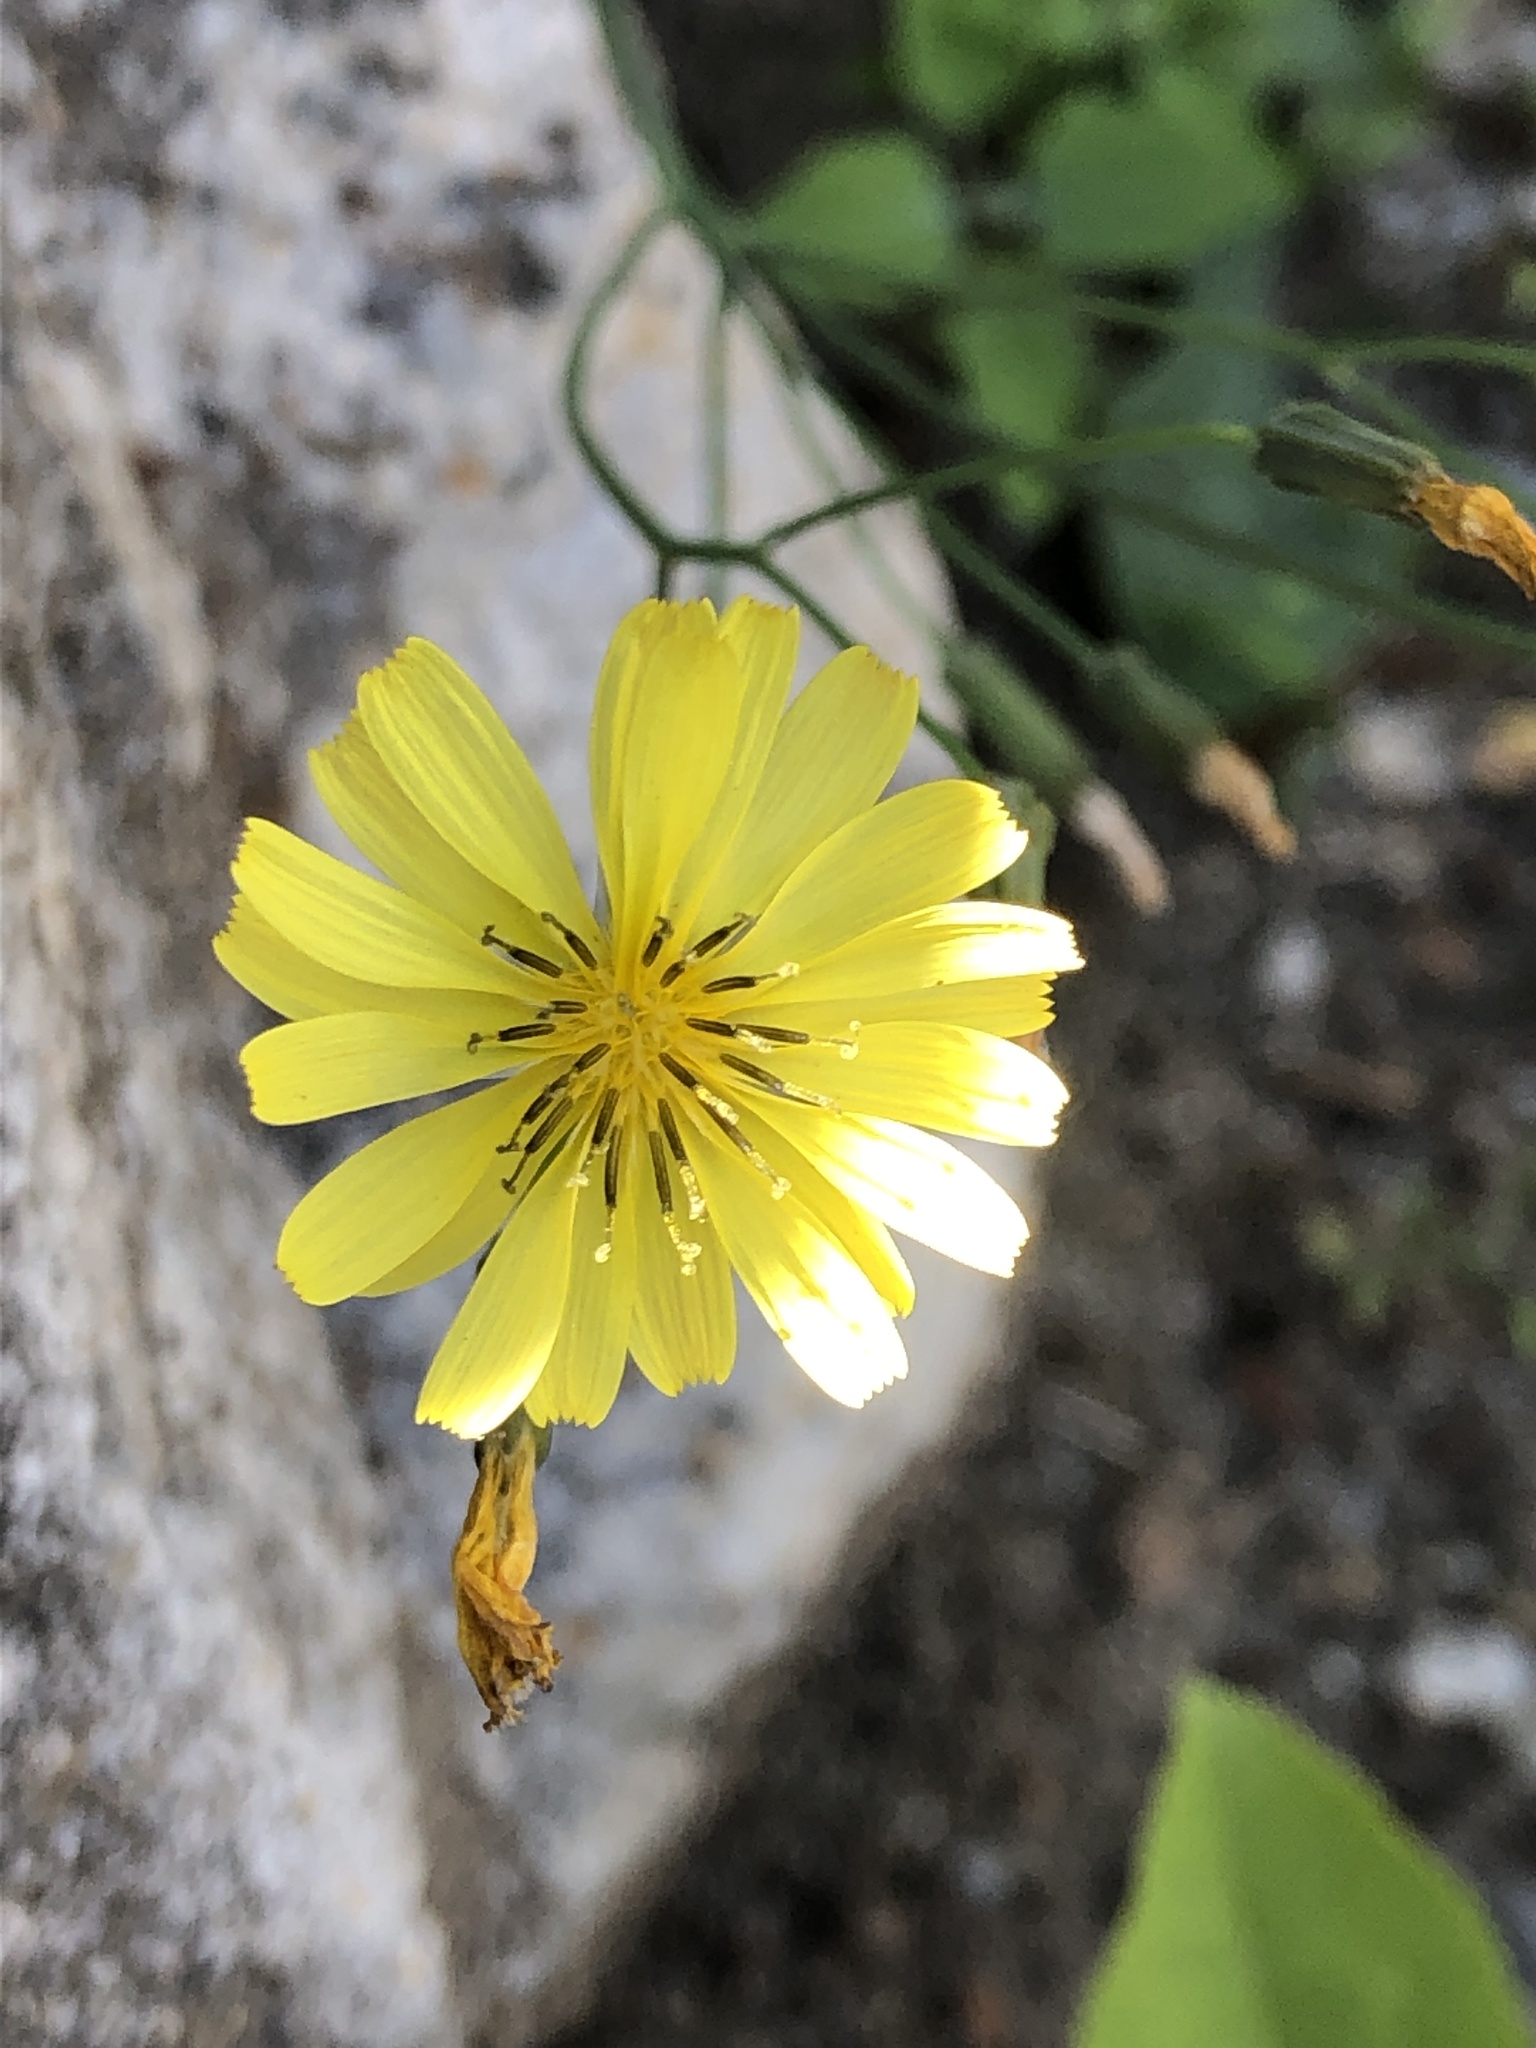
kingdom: Plantae
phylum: Tracheophyta
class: Magnoliopsida
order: Asterales
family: Asteraceae
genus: Ixeris
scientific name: Ixeris chinensis
